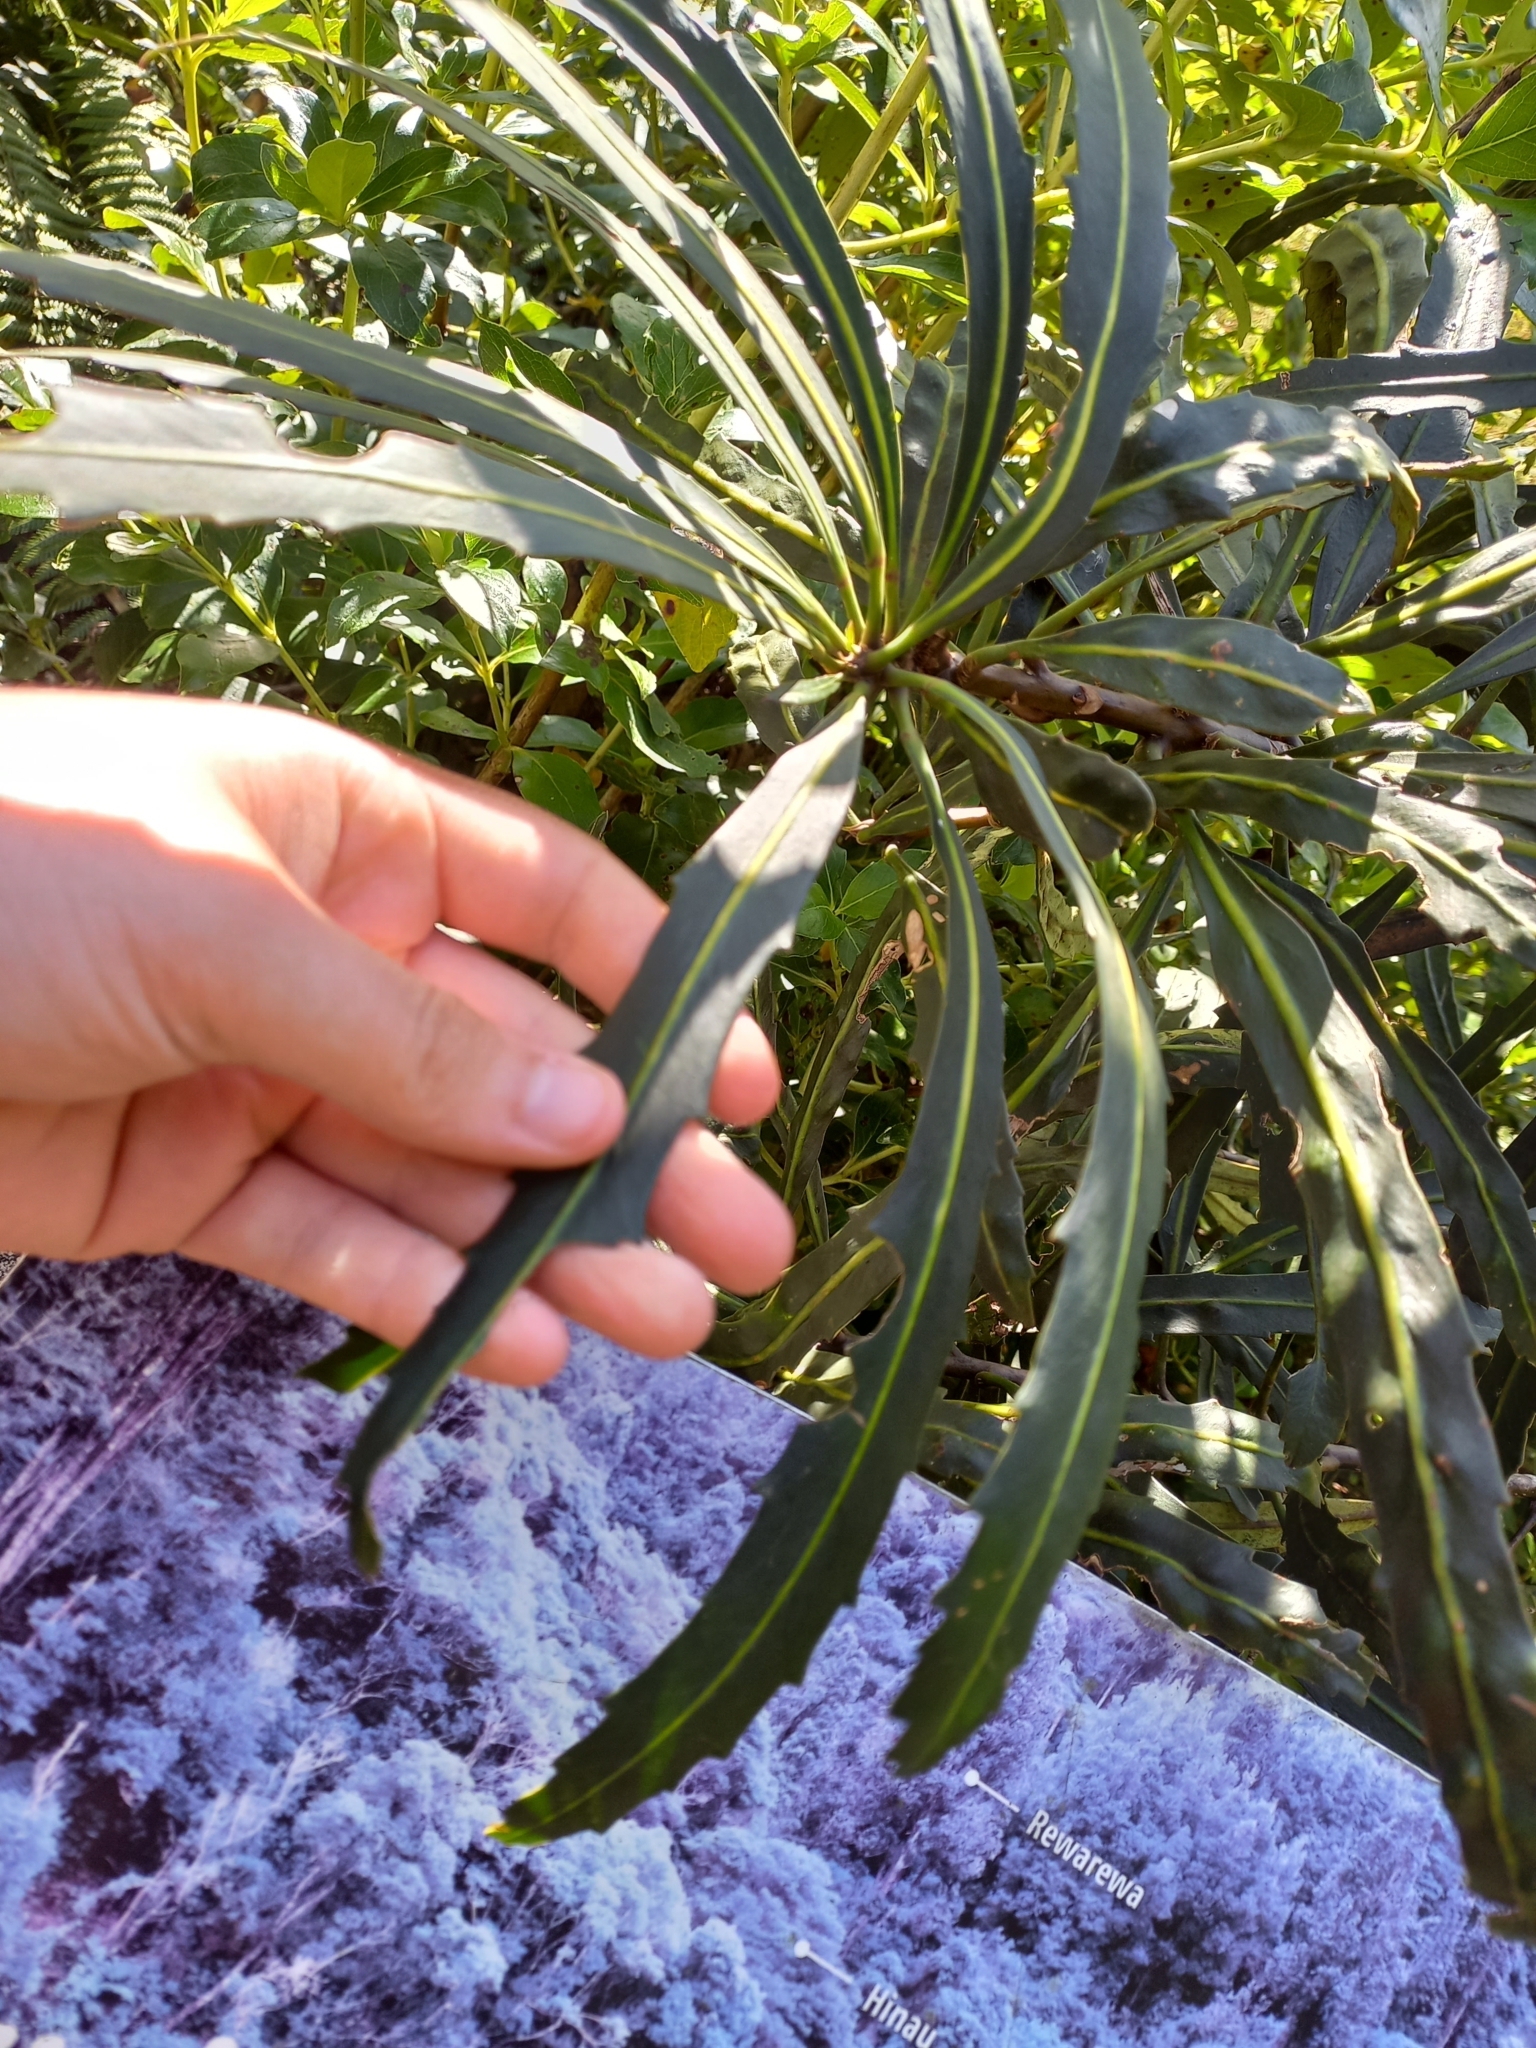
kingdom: Plantae
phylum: Tracheophyta
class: Magnoliopsida
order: Apiales
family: Araliaceae
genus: Pseudopanax
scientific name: Pseudopanax crassifolius
